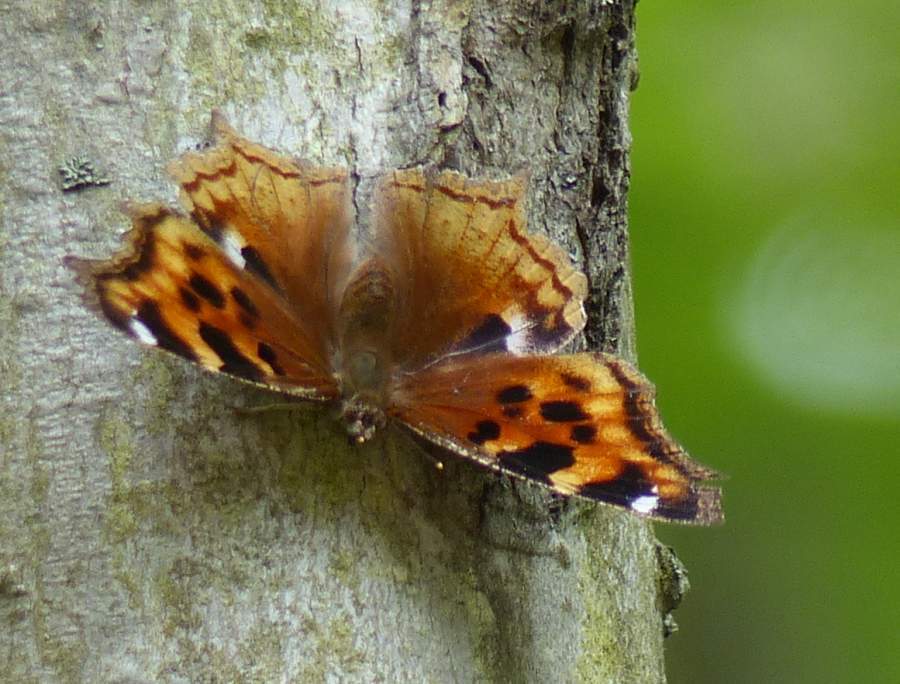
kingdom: Animalia
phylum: Arthropoda
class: Insecta
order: Lepidoptera
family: Nymphalidae
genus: Polygonia
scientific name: Polygonia vaualbum
